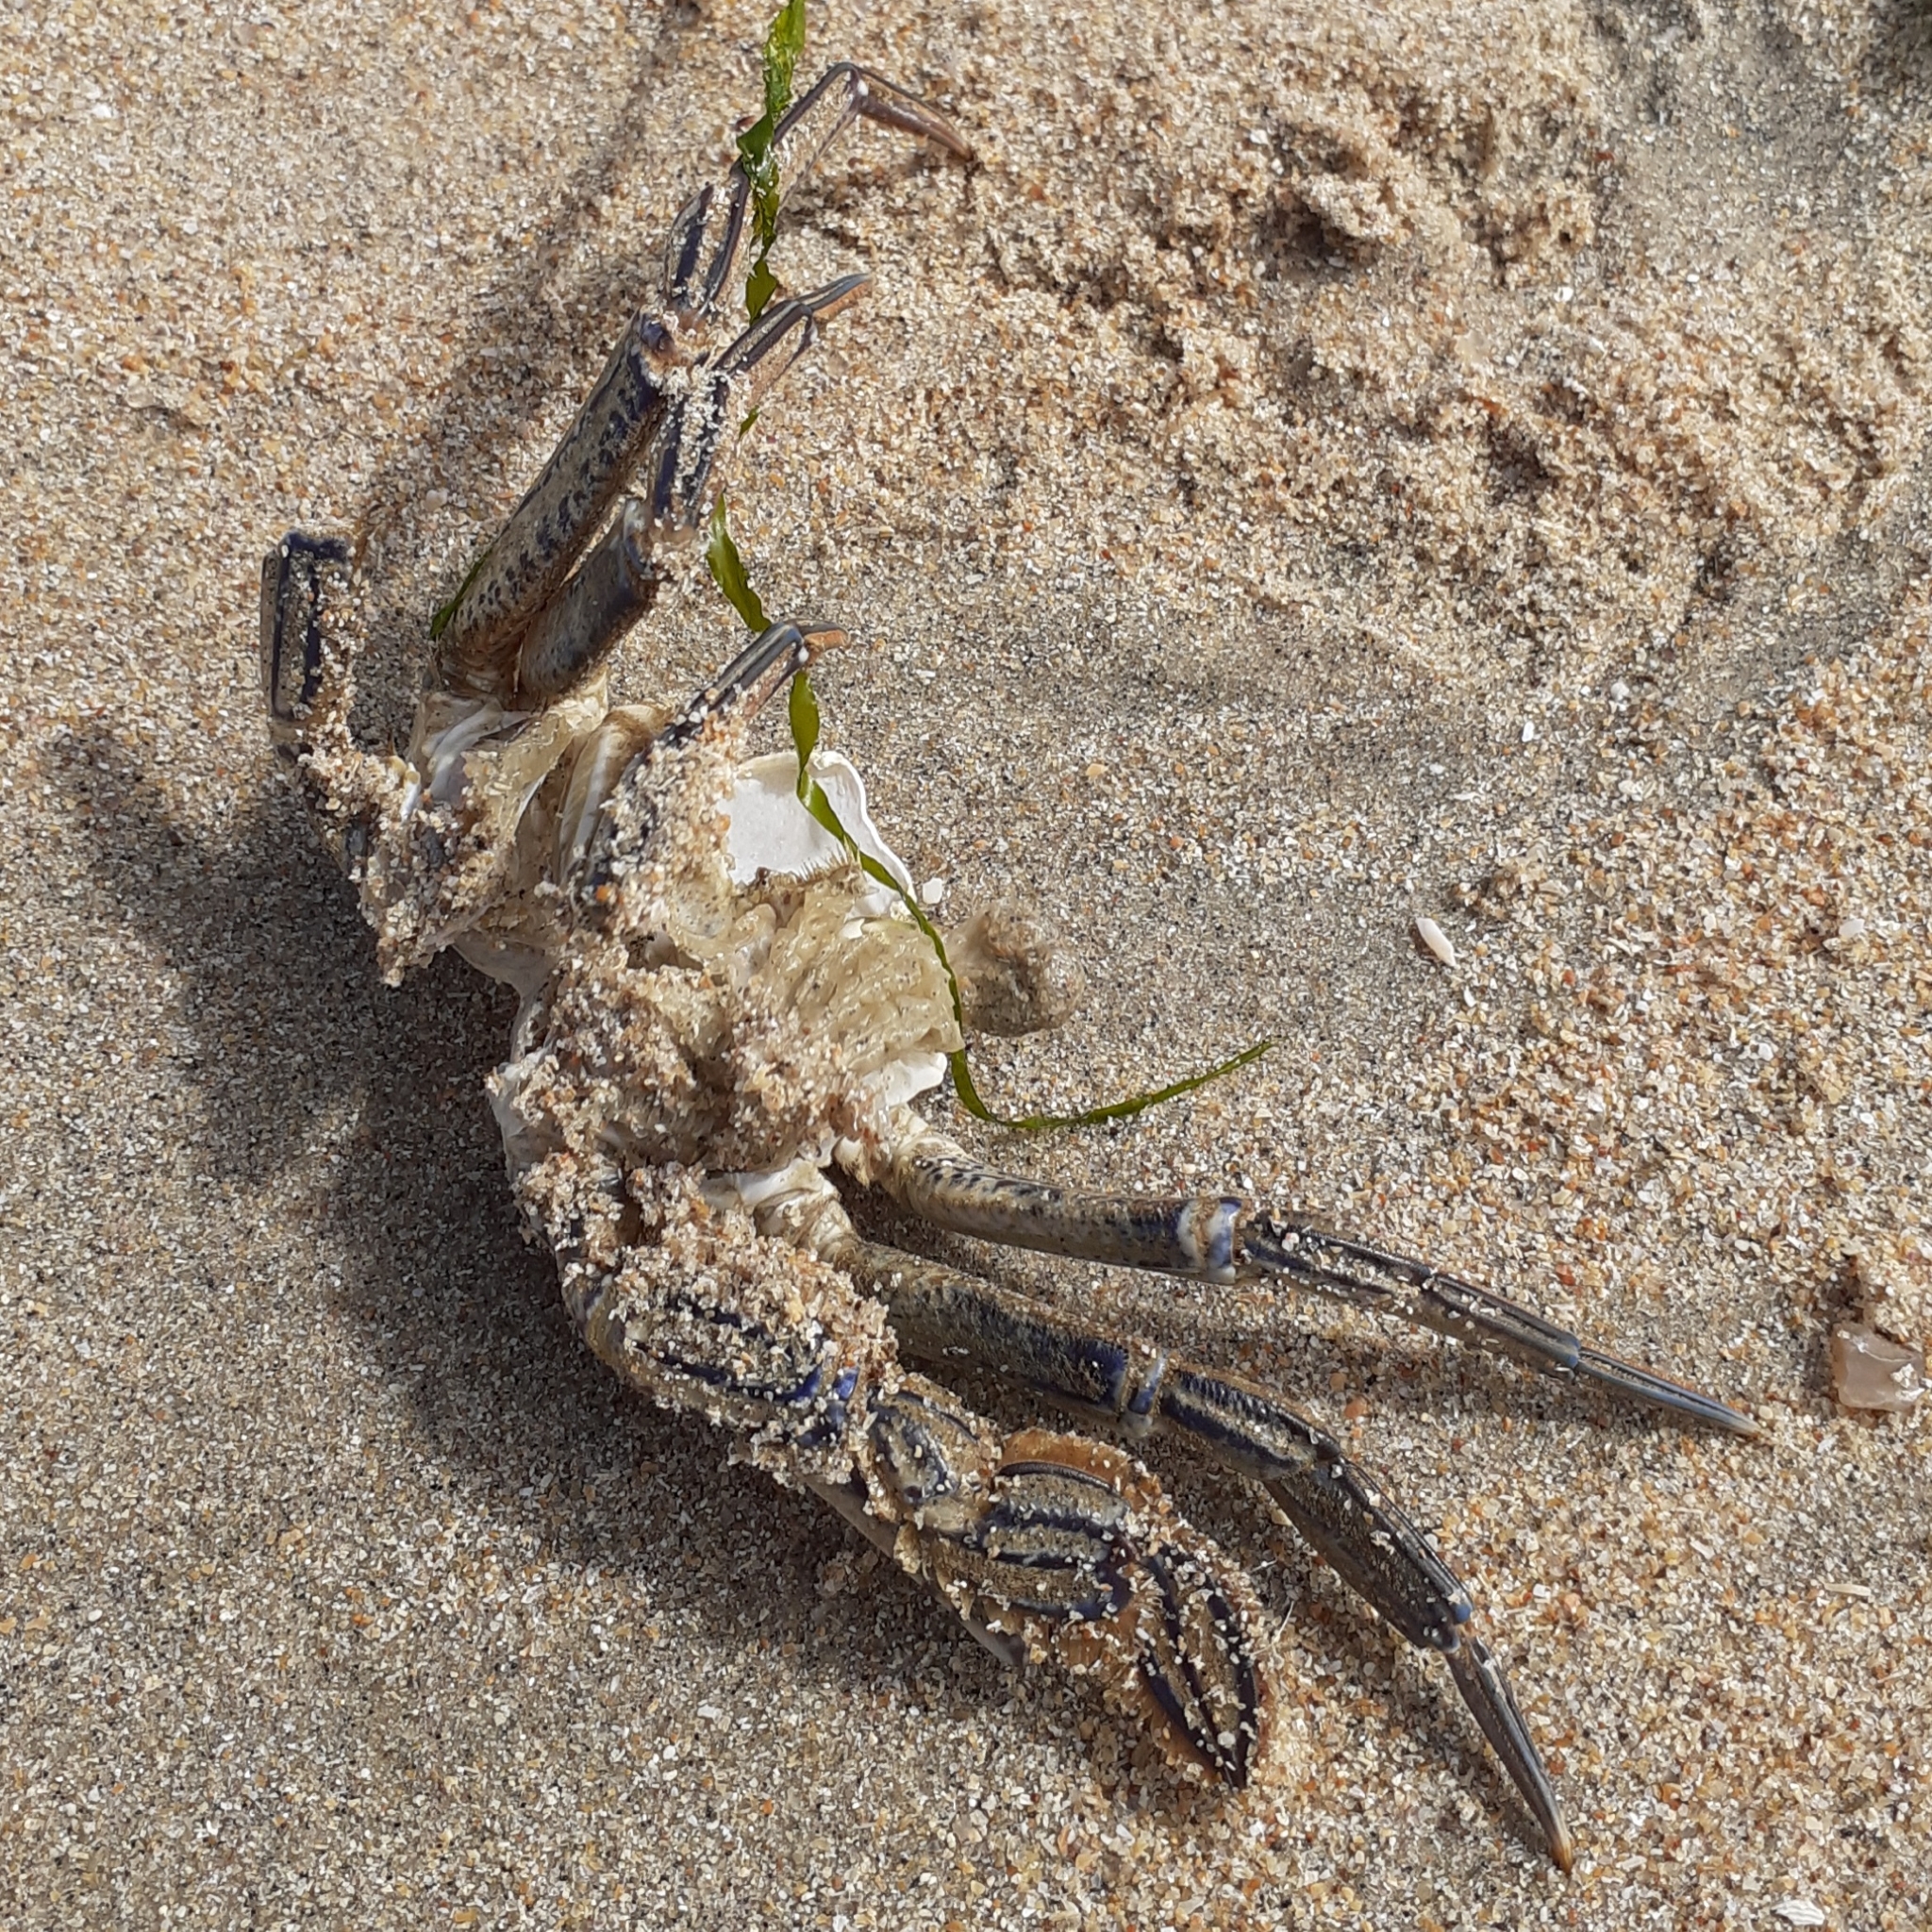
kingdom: Animalia
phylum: Arthropoda
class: Malacostraca
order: Decapoda
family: Polybiidae
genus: Necora
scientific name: Necora puber
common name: Velvet swimming crab
